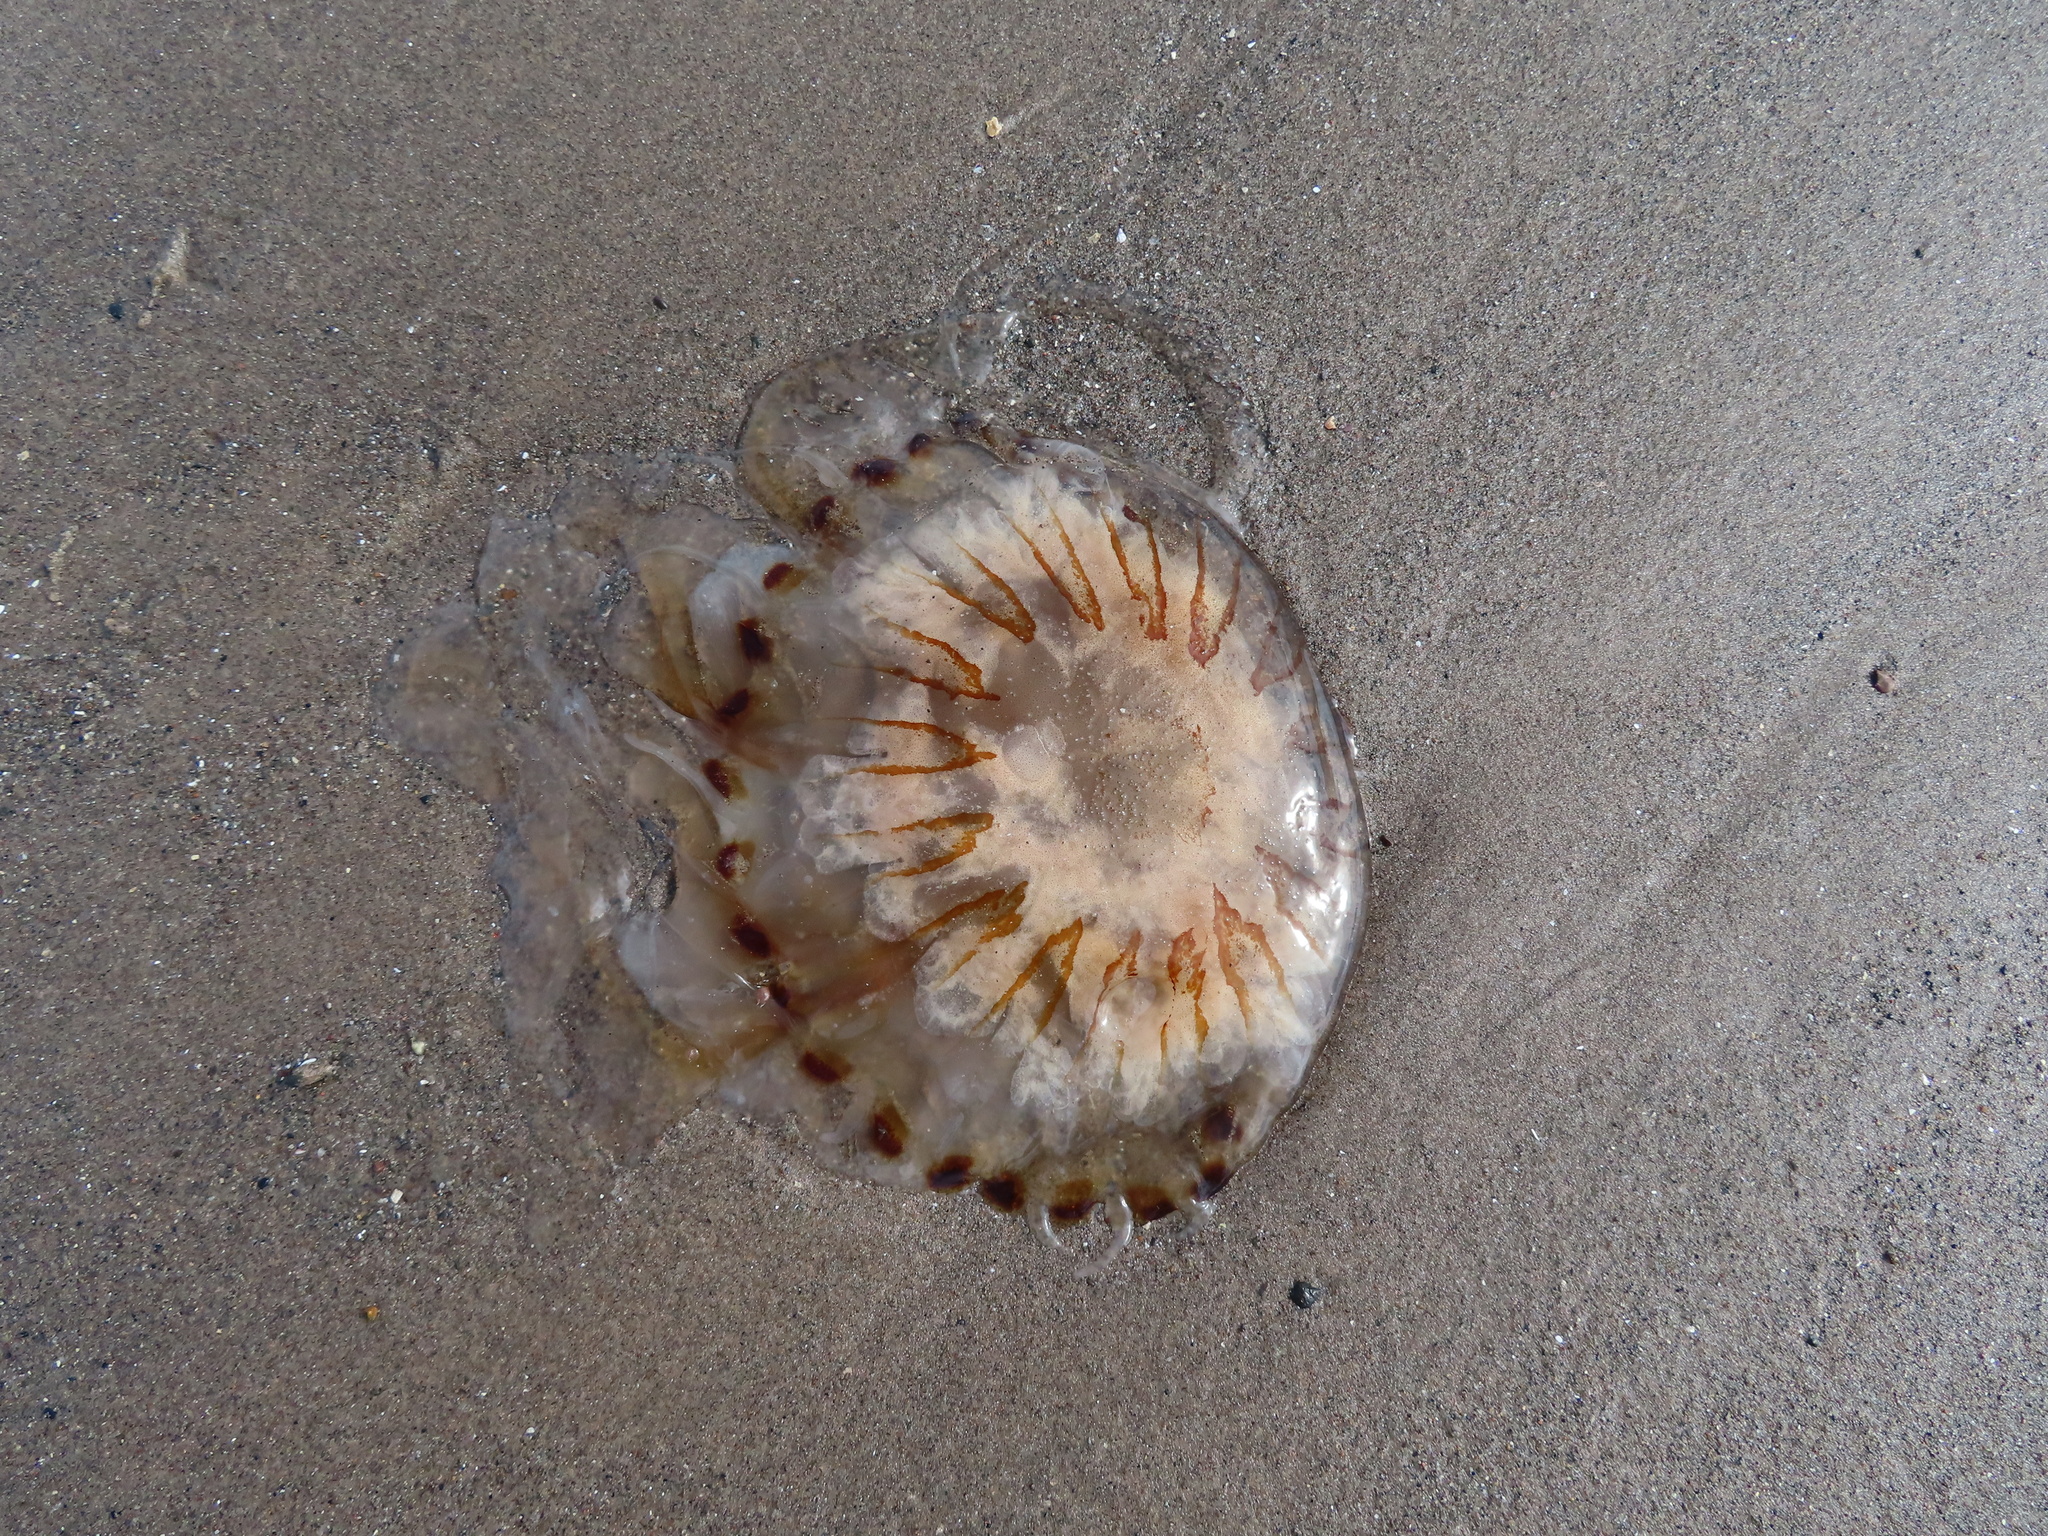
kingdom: Animalia
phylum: Cnidaria
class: Scyphozoa
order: Semaeostomeae
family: Pelagiidae
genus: Chrysaora
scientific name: Chrysaora hysoscella
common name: Compass jellyfish
